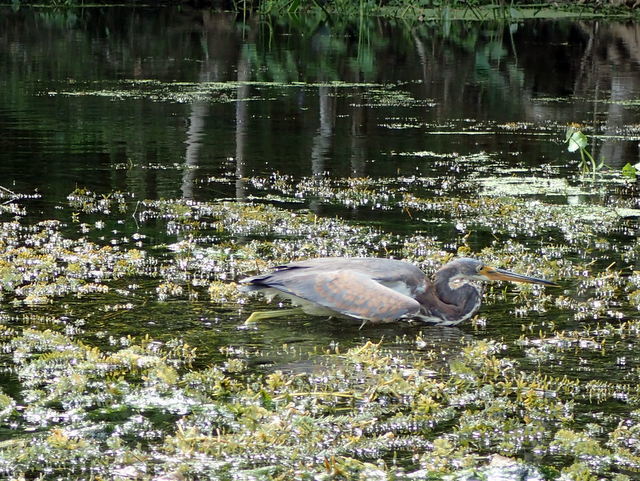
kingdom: Animalia
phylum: Chordata
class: Aves
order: Pelecaniformes
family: Ardeidae
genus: Egretta
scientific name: Egretta tricolor
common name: Tricolored heron
